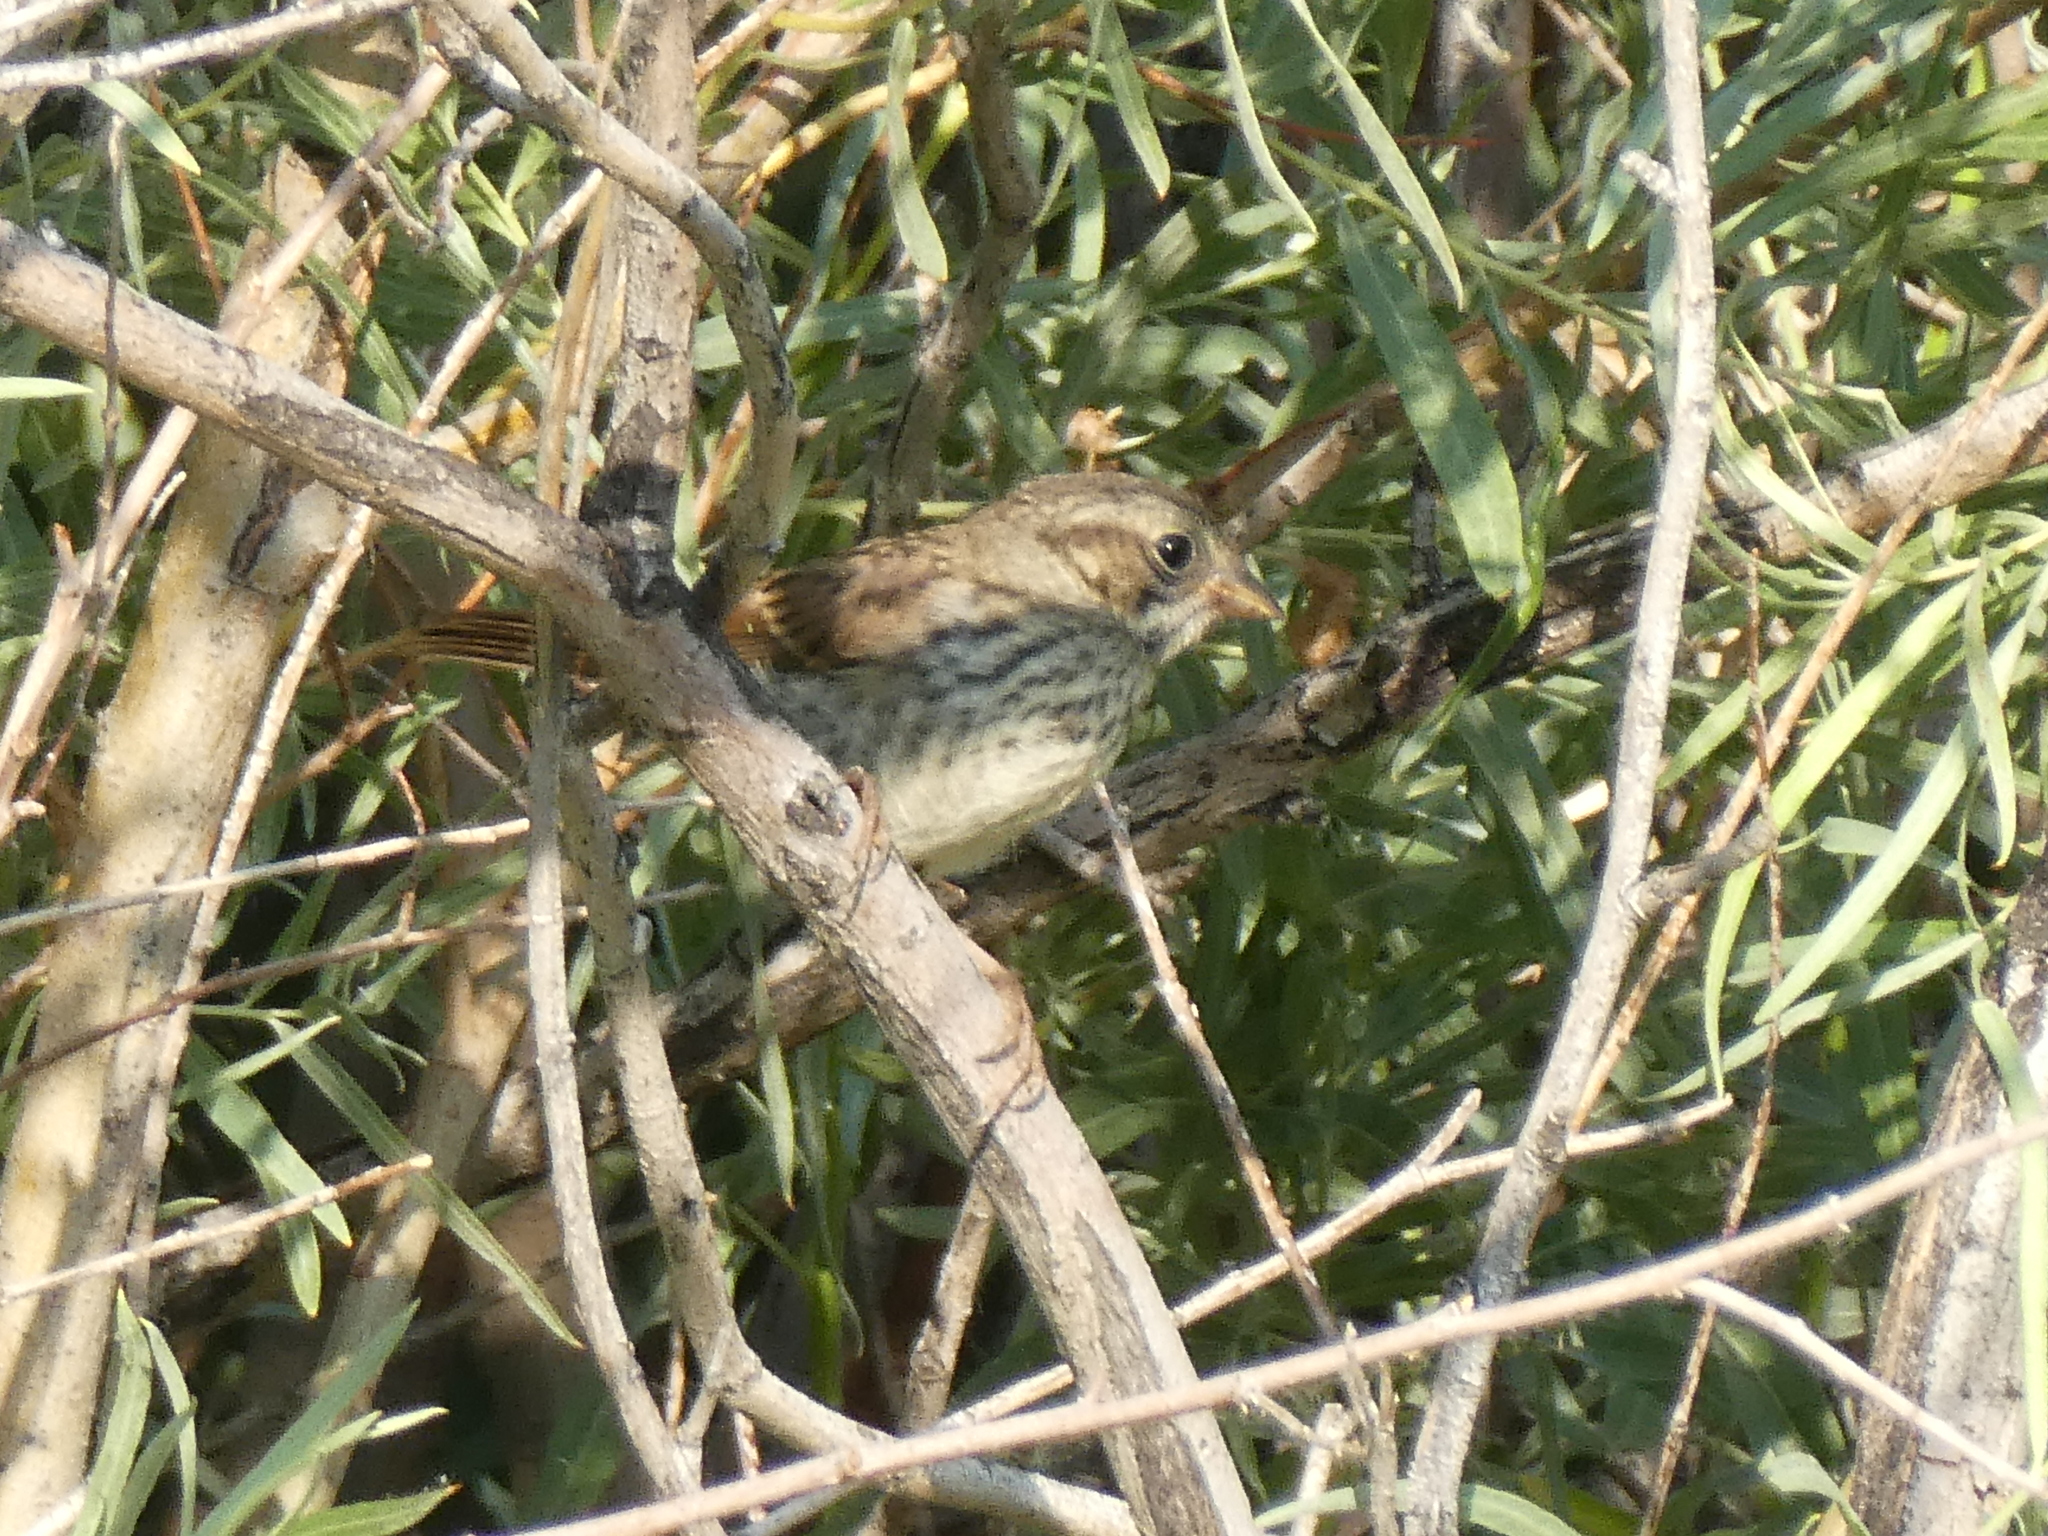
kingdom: Animalia
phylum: Chordata
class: Aves
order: Passeriformes
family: Passerellidae
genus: Melospiza
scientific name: Melospiza melodia
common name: Song sparrow
